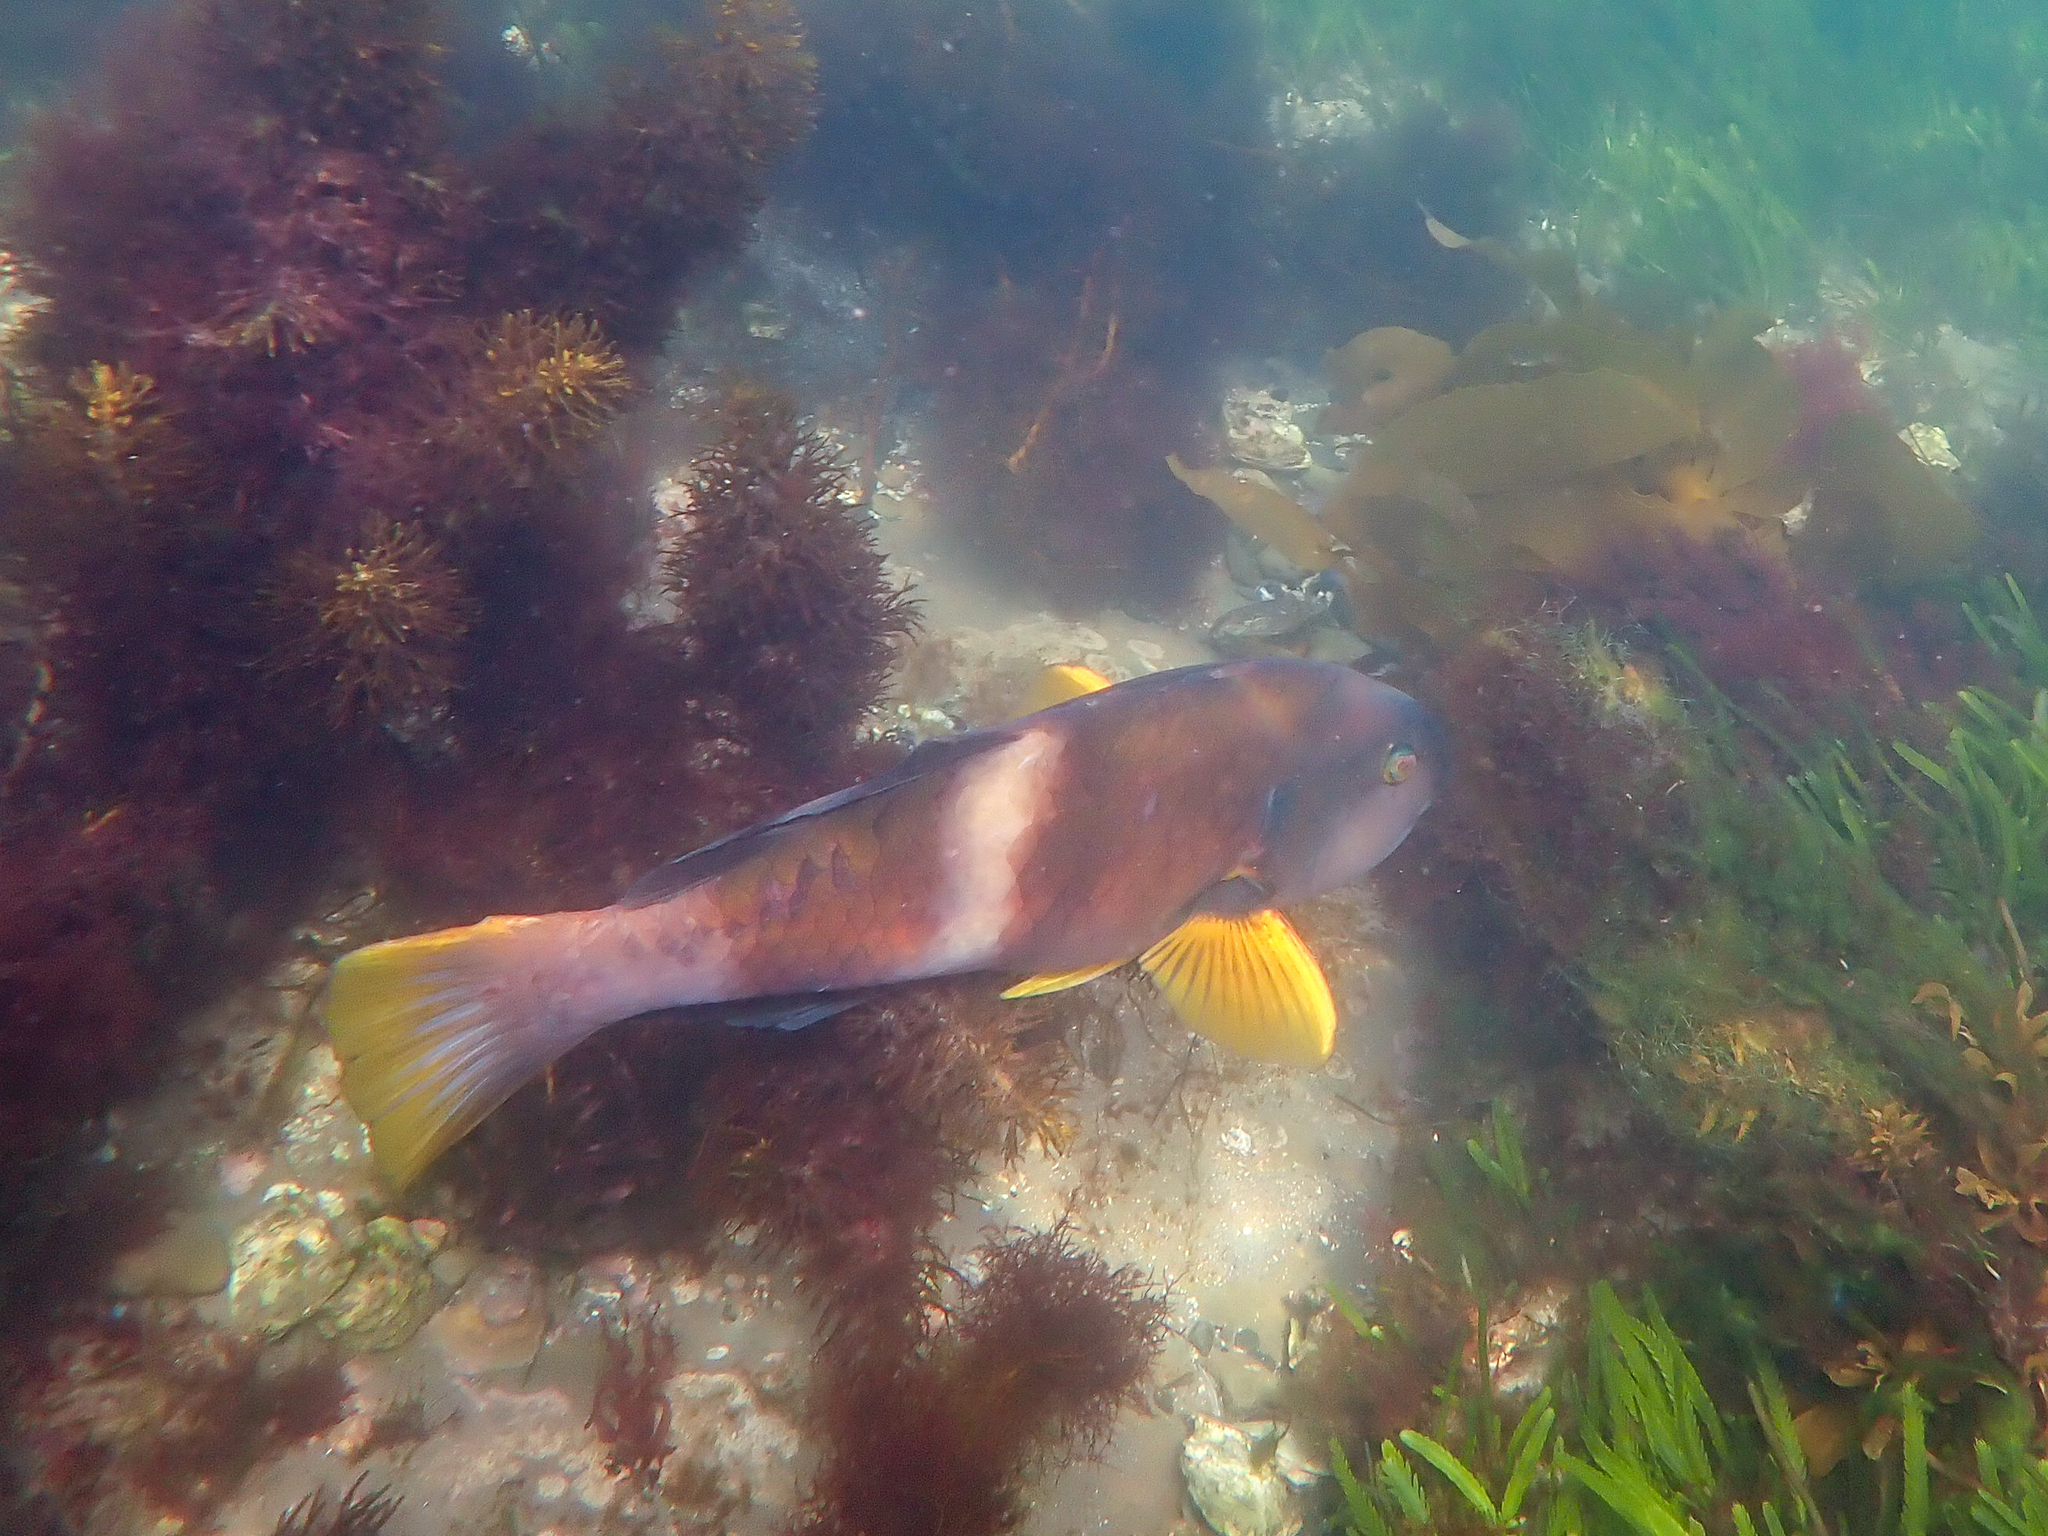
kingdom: Animalia
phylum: Chordata
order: Perciformes
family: Labridae
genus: Notolabrus
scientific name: Notolabrus tetricus
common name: Blue-throated parrotfish
